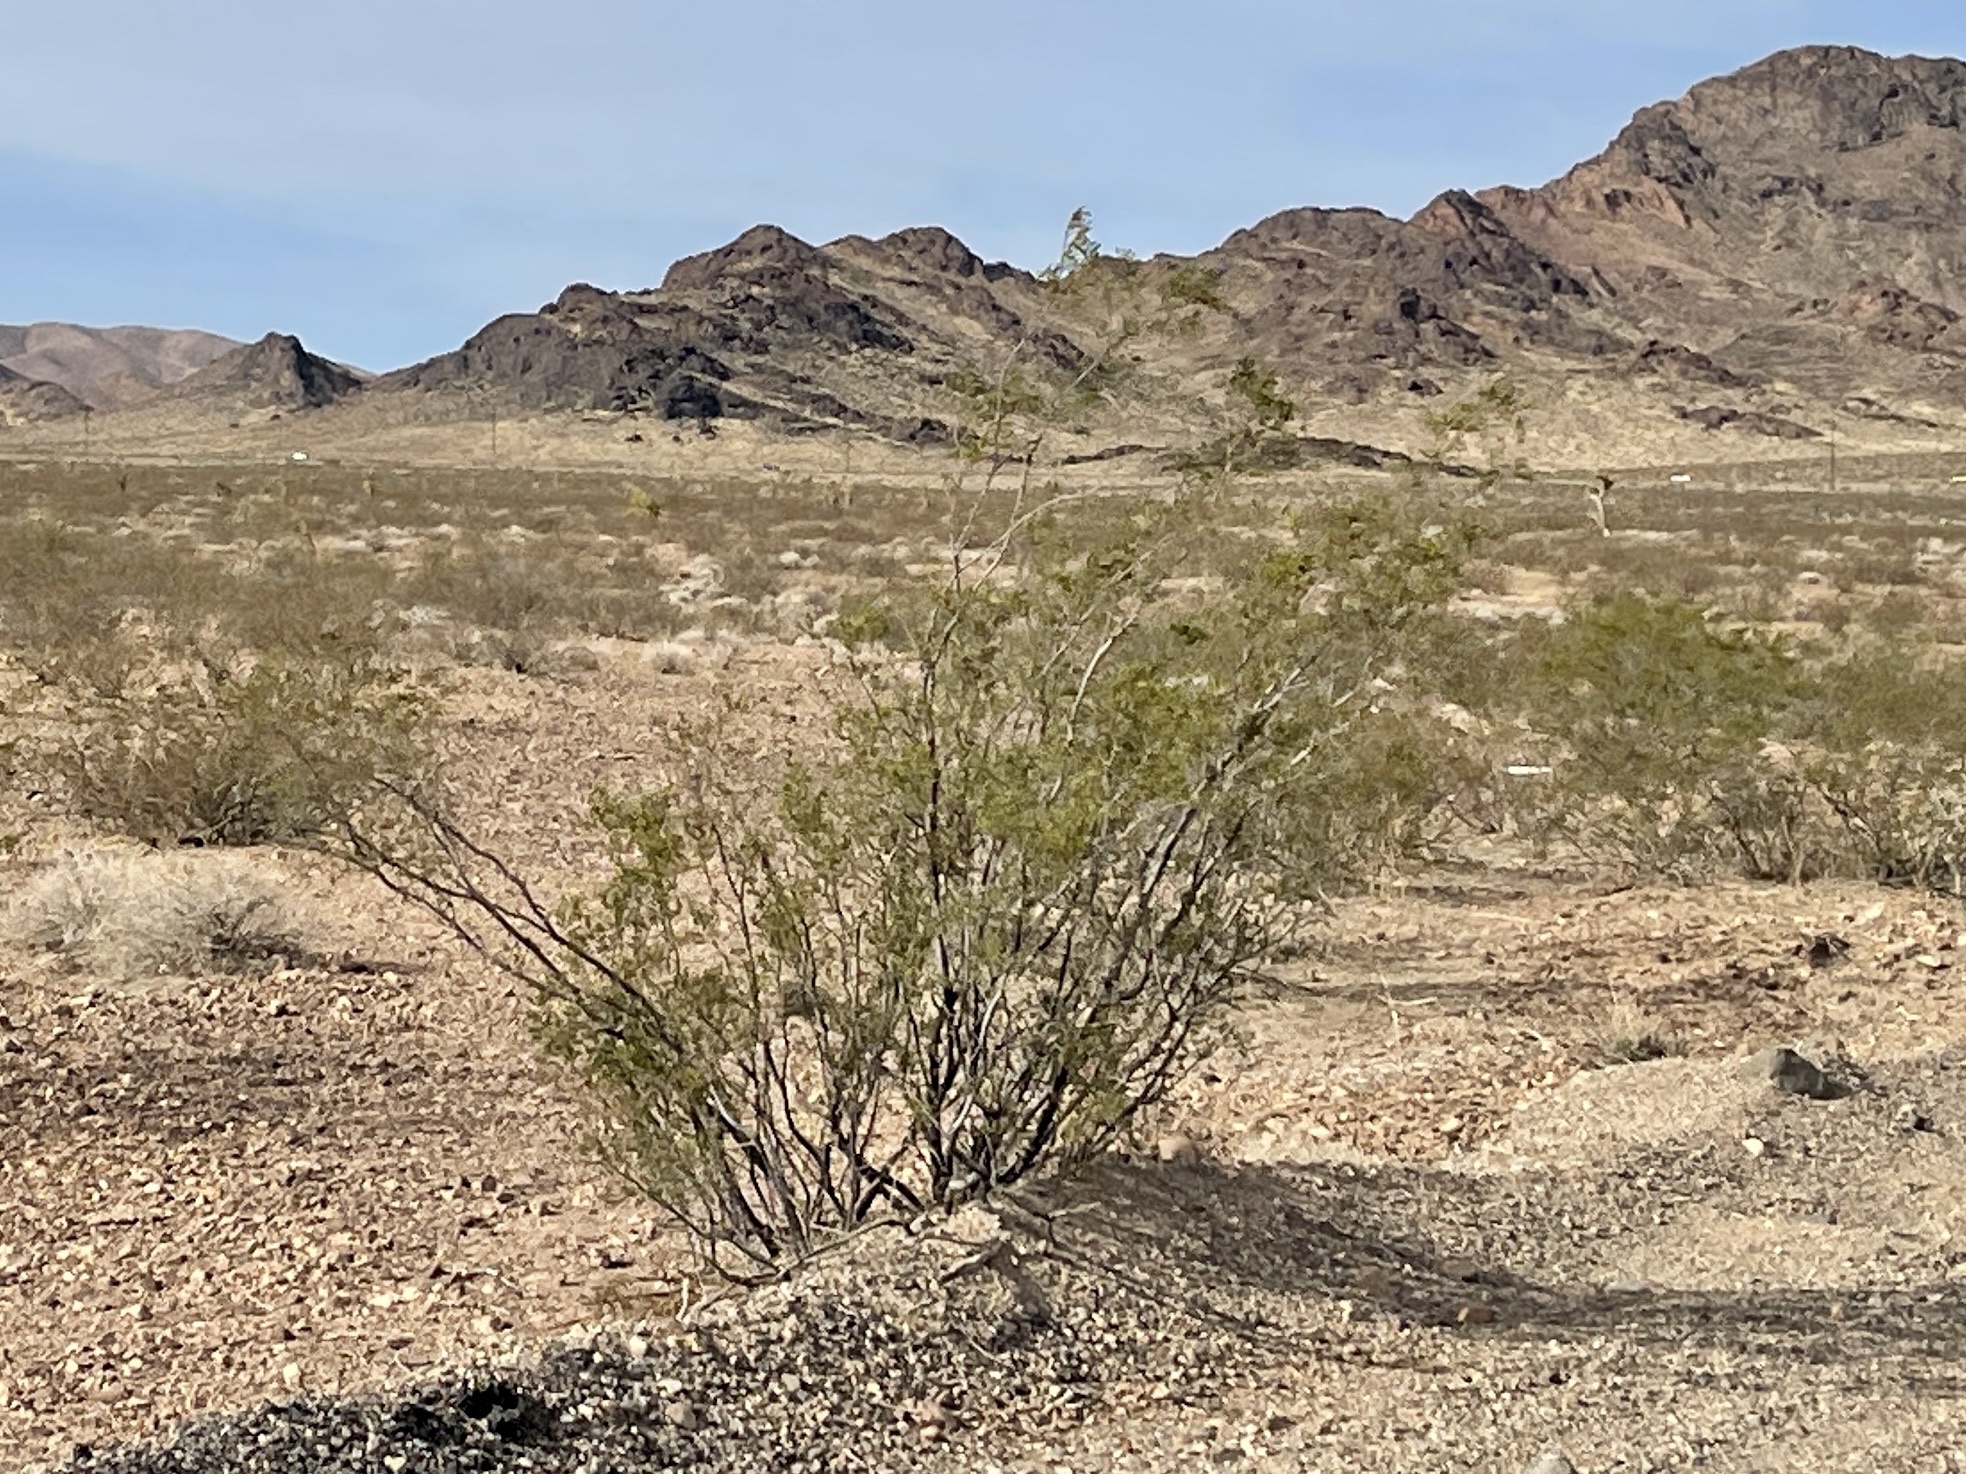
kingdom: Plantae
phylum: Tracheophyta
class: Magnoliopsida
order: Zygophyllales
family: Zygophyllaceae
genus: Larrea
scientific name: Larrea tridentata
